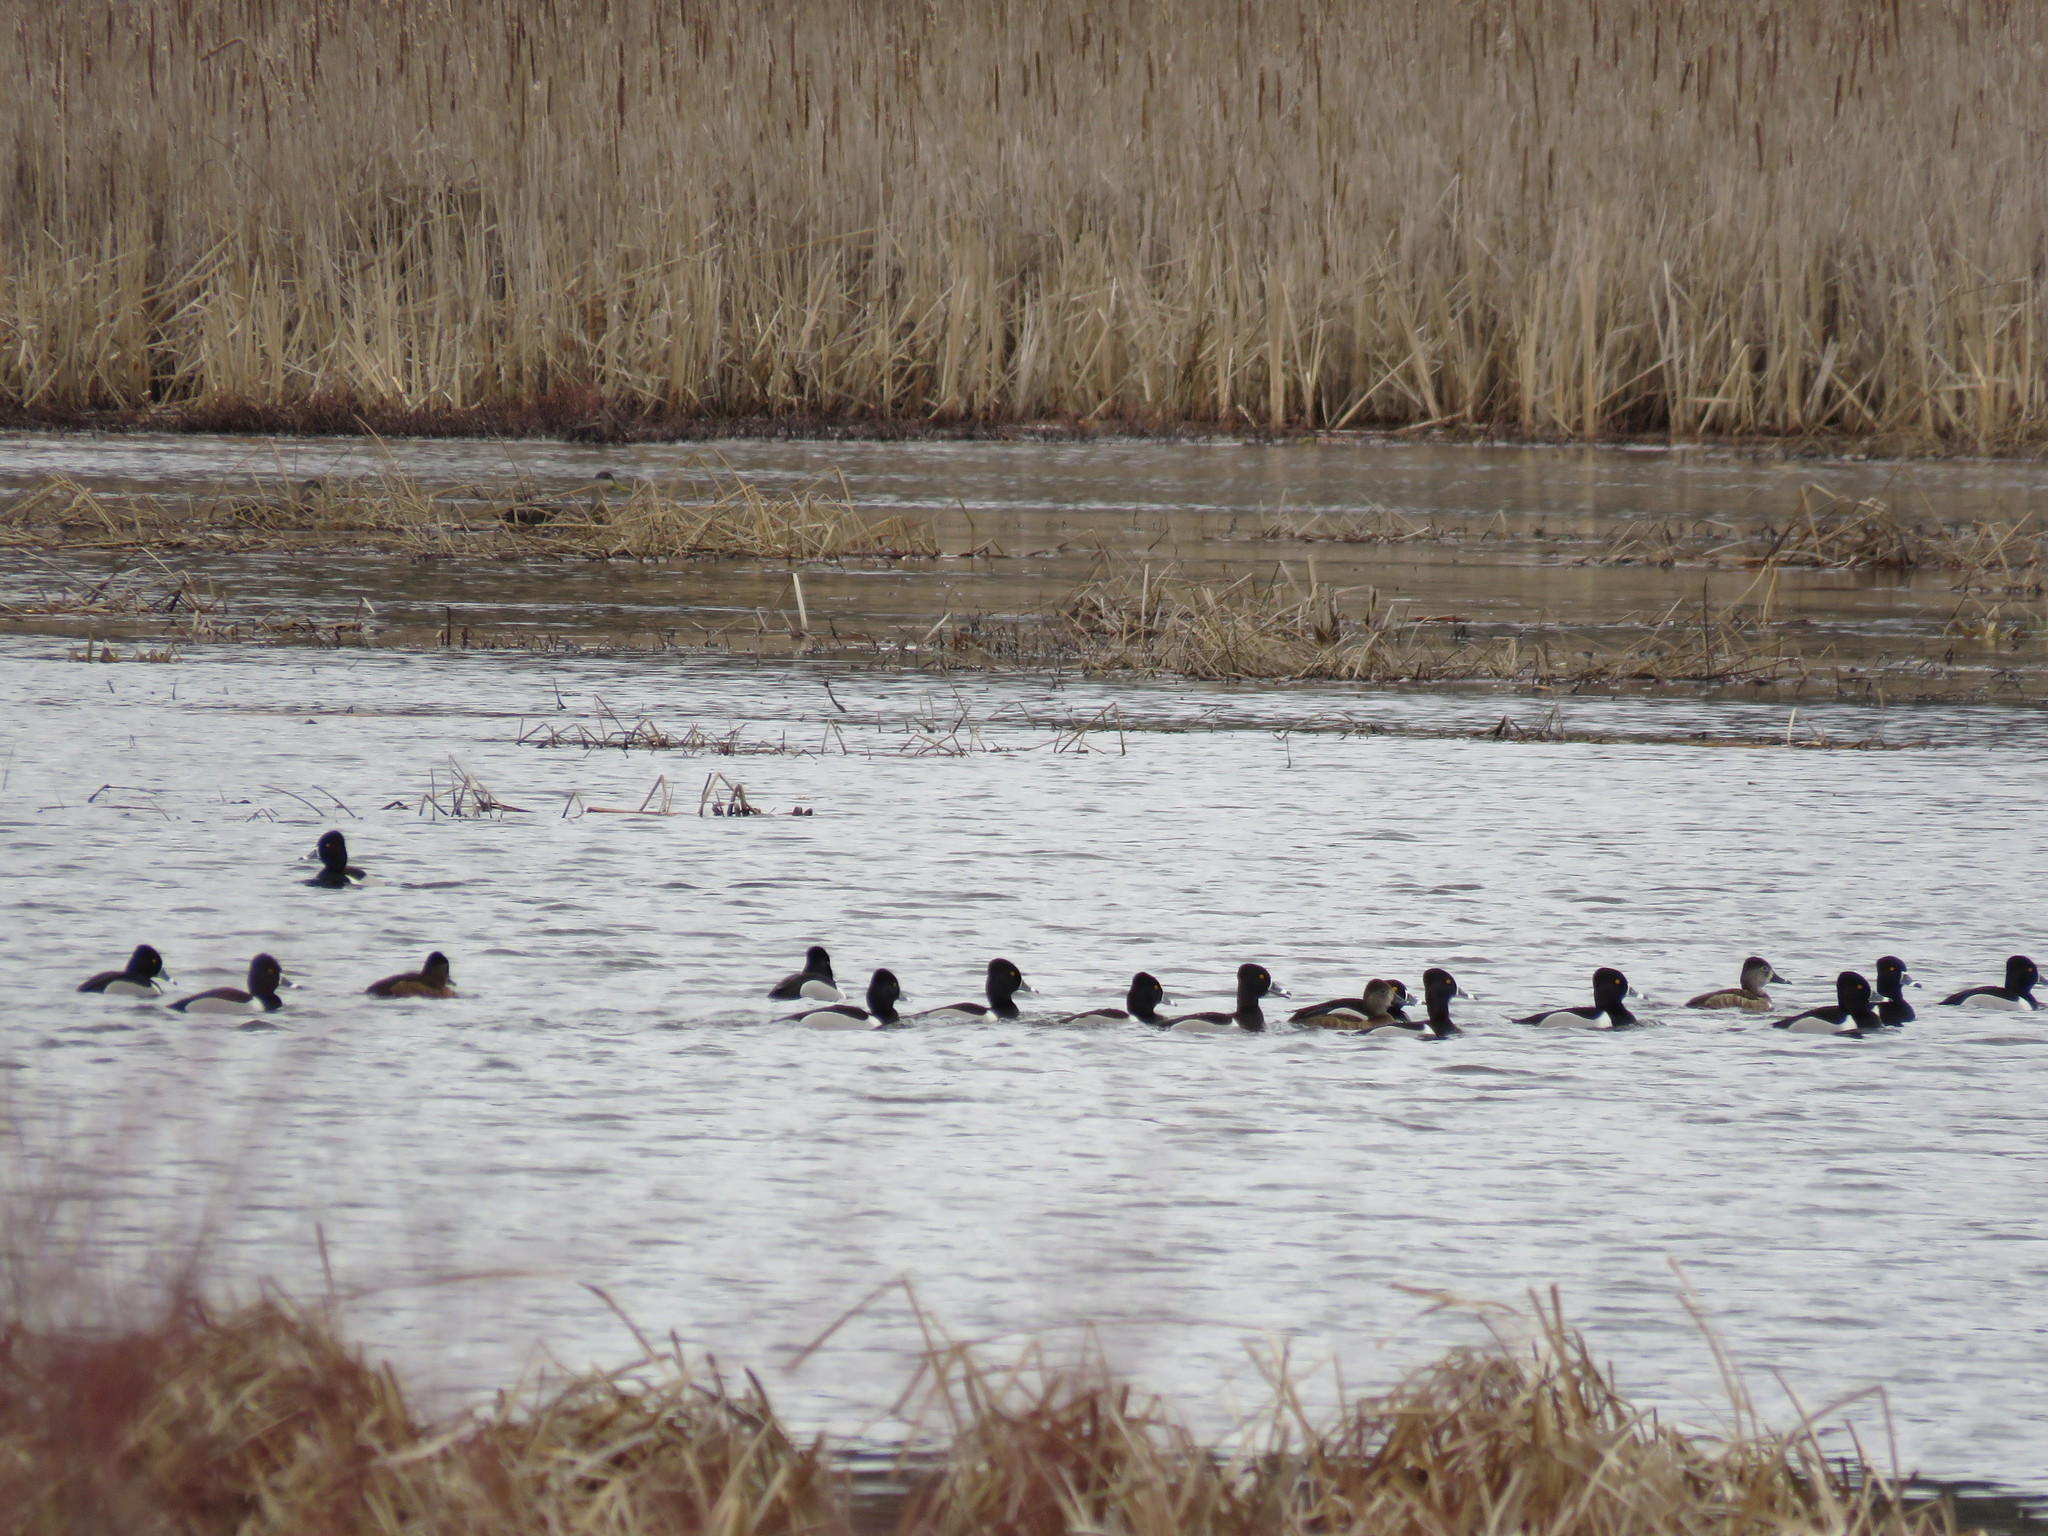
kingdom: Animalia
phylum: Chordata
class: Aves
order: Anseriformes
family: Anatidae
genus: Aythya
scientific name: Aythya collaris
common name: Ring-necked duck
